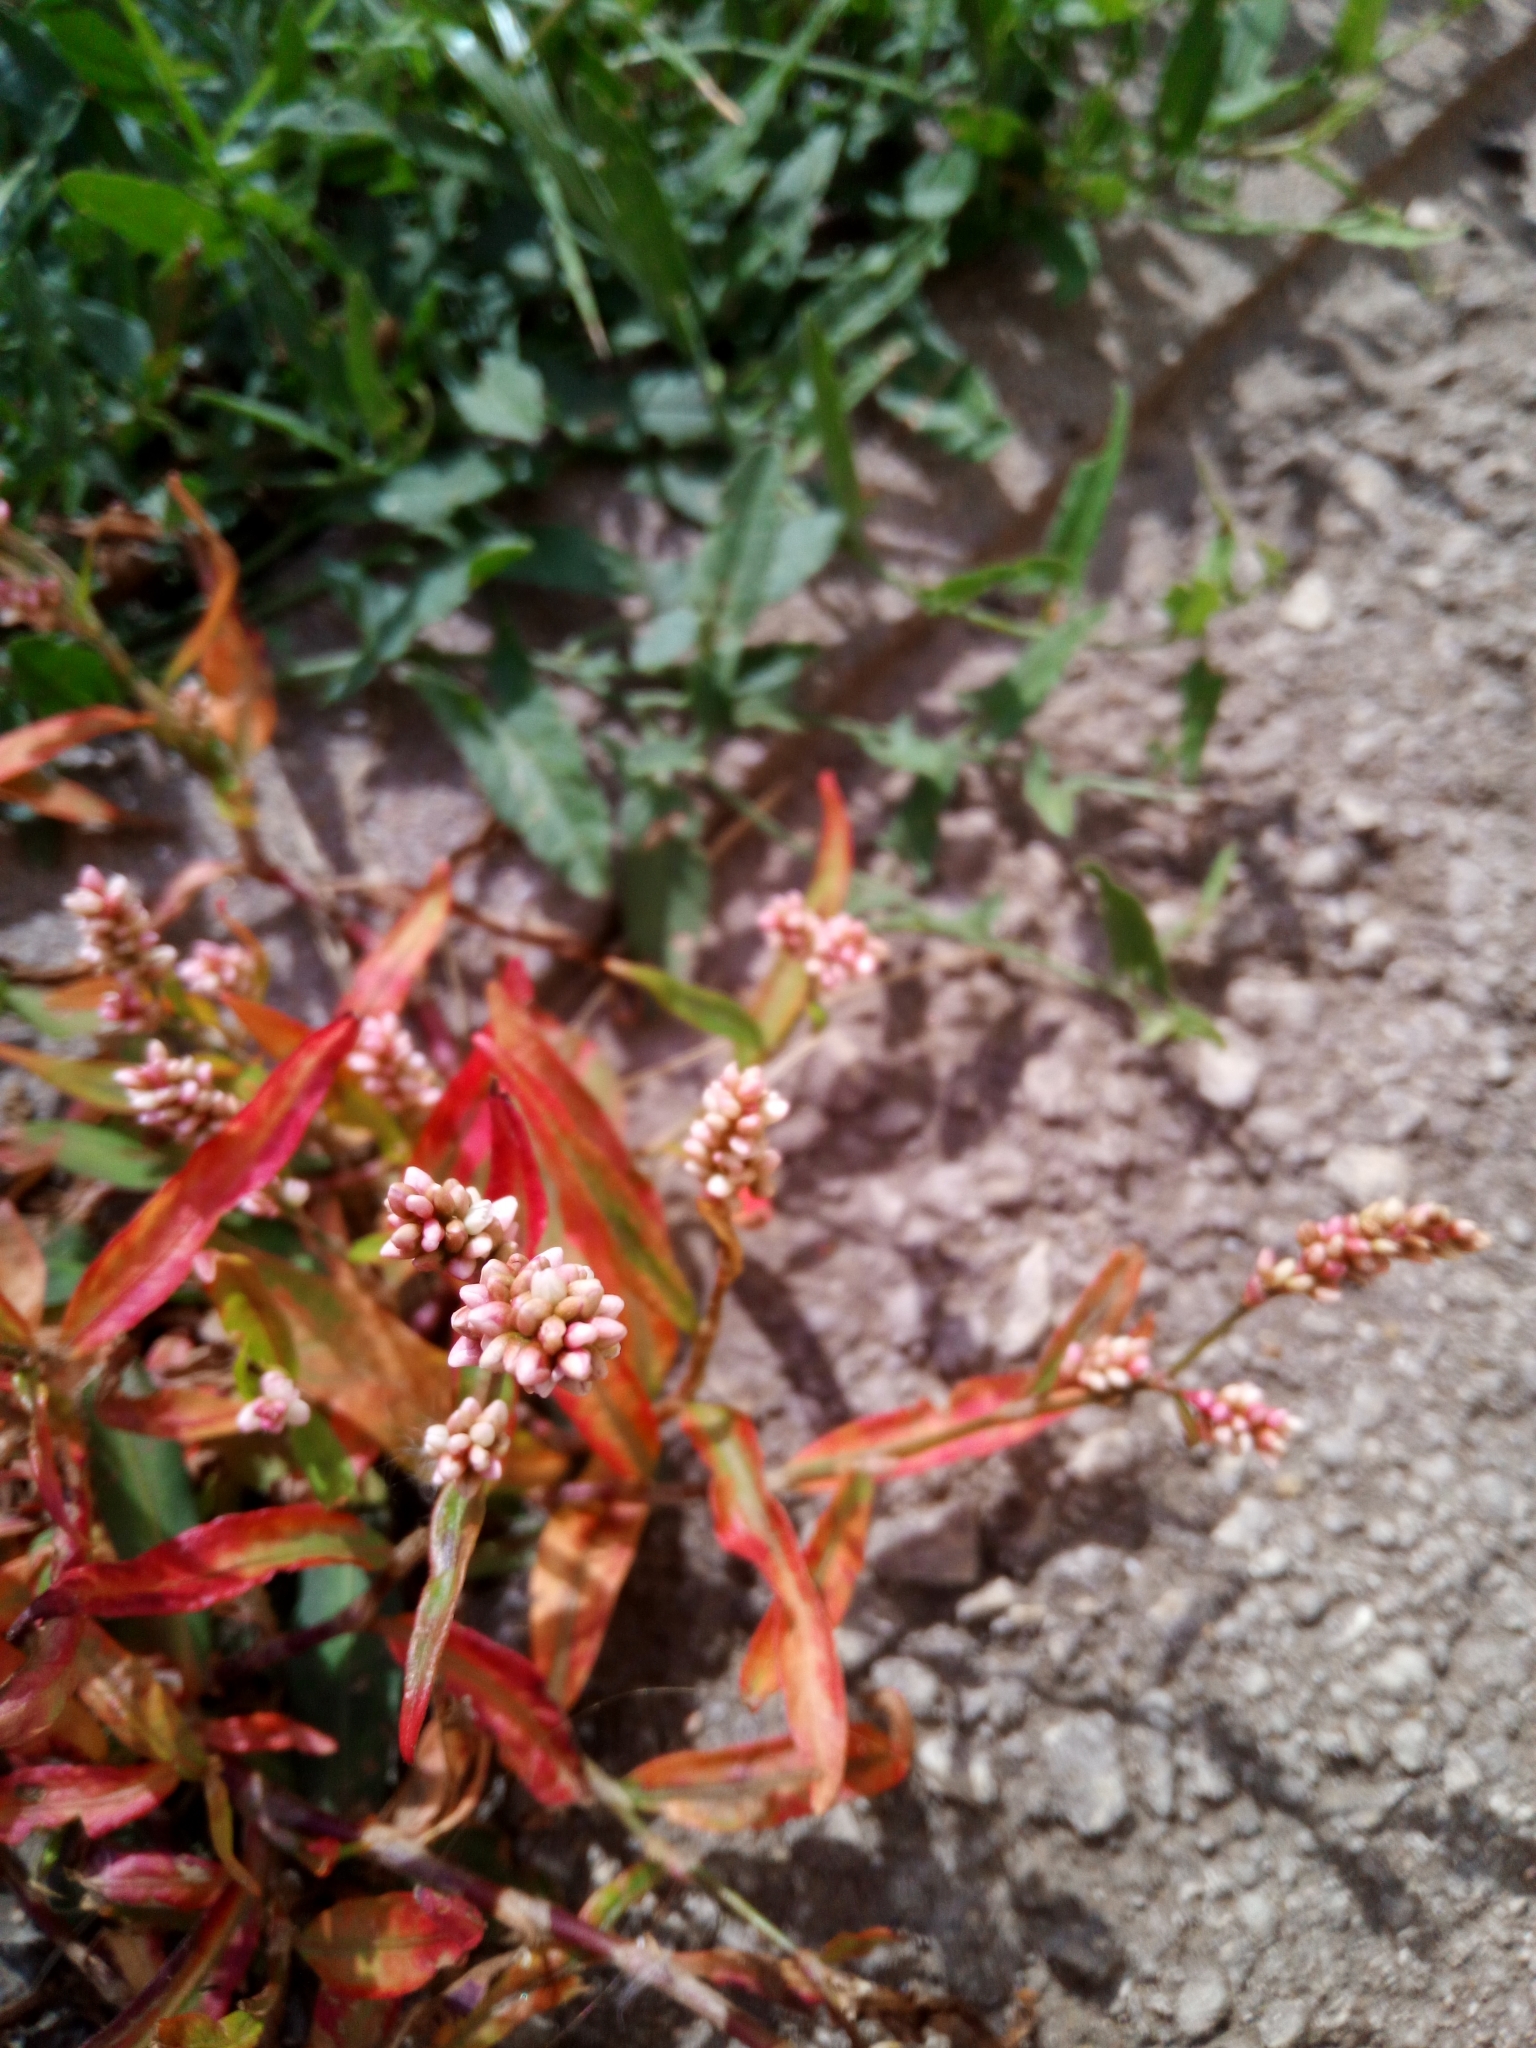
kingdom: Plantae
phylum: Tracheophyta
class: Magnoliopsida
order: Caryophyllales
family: Polygonaceae
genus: Persicaria
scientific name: Persicaria maculosa
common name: Redshank
